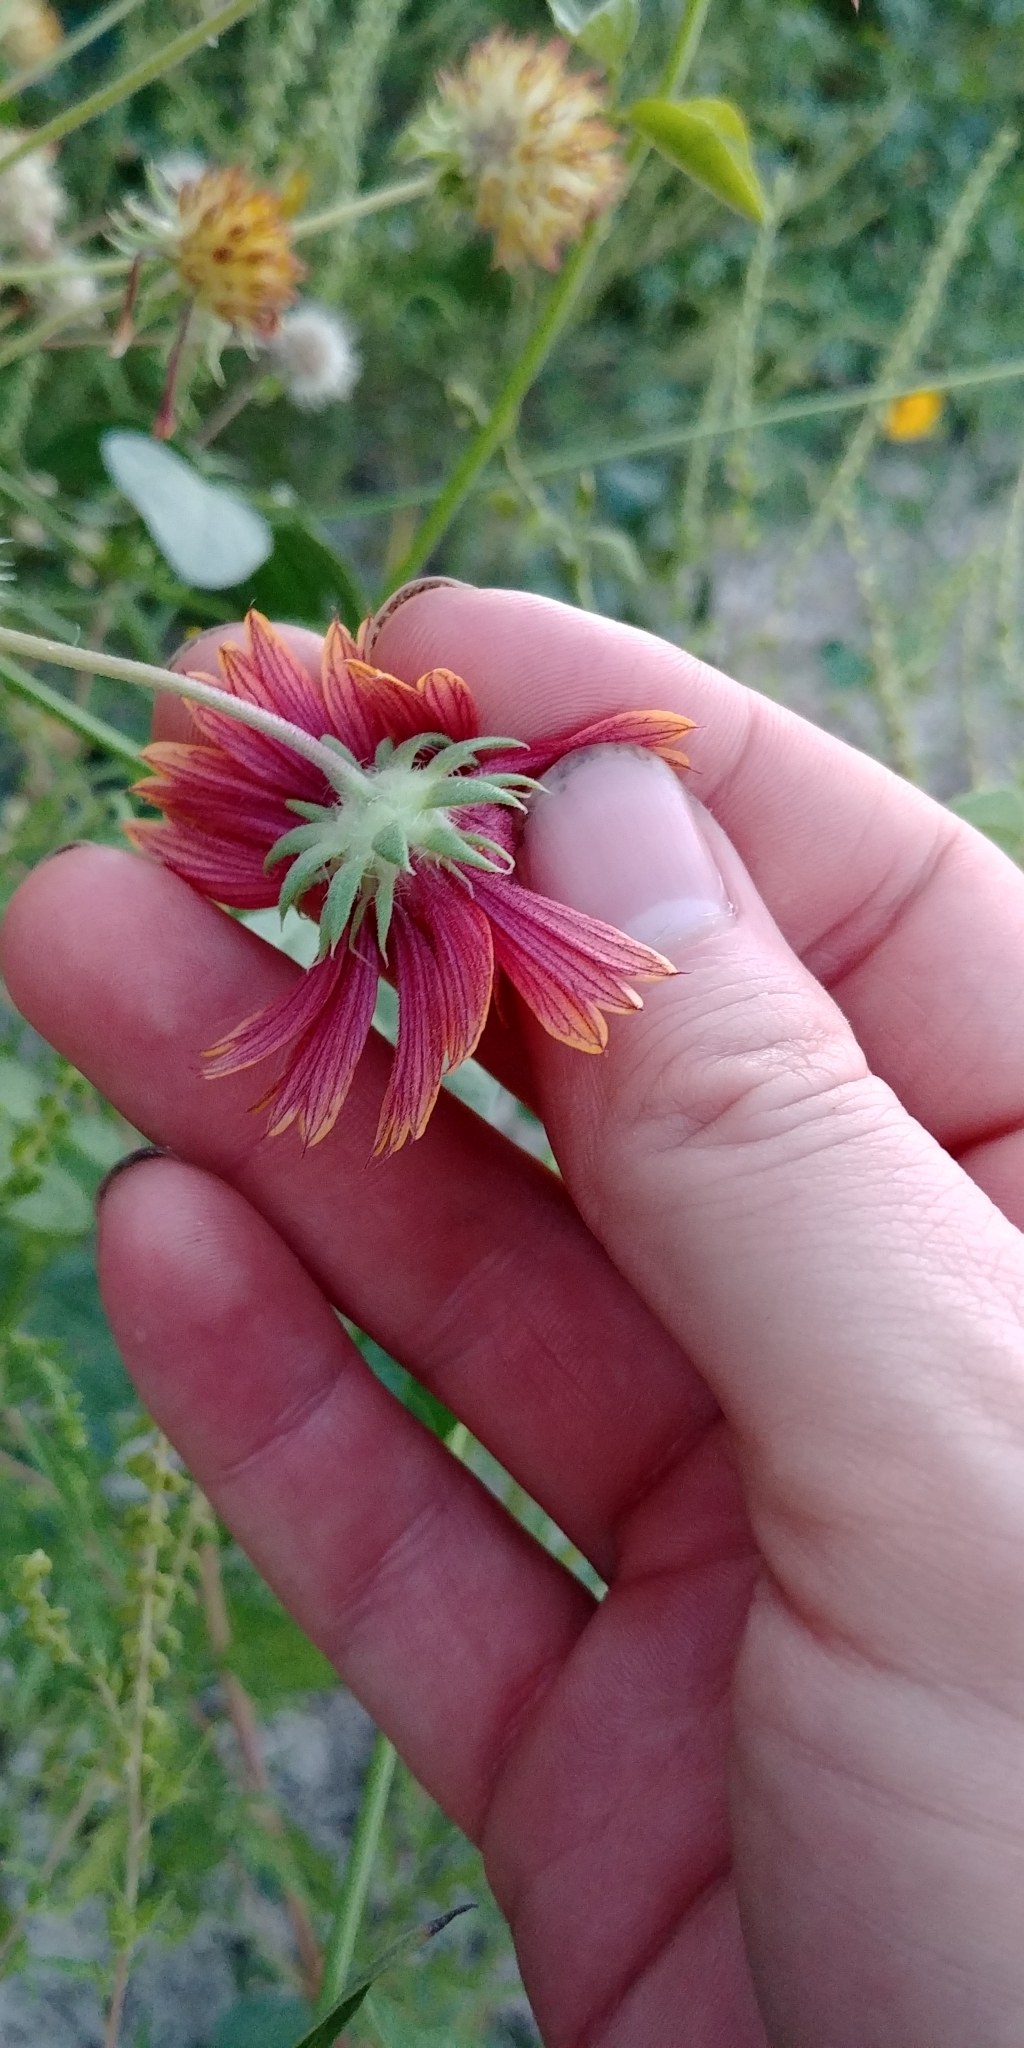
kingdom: Plantae
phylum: Tracheophyta
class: Magnoliopsida
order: Asterales
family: Asteraceae
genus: Gaillardia
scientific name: Gaillardia pulchella
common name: Firewheel
